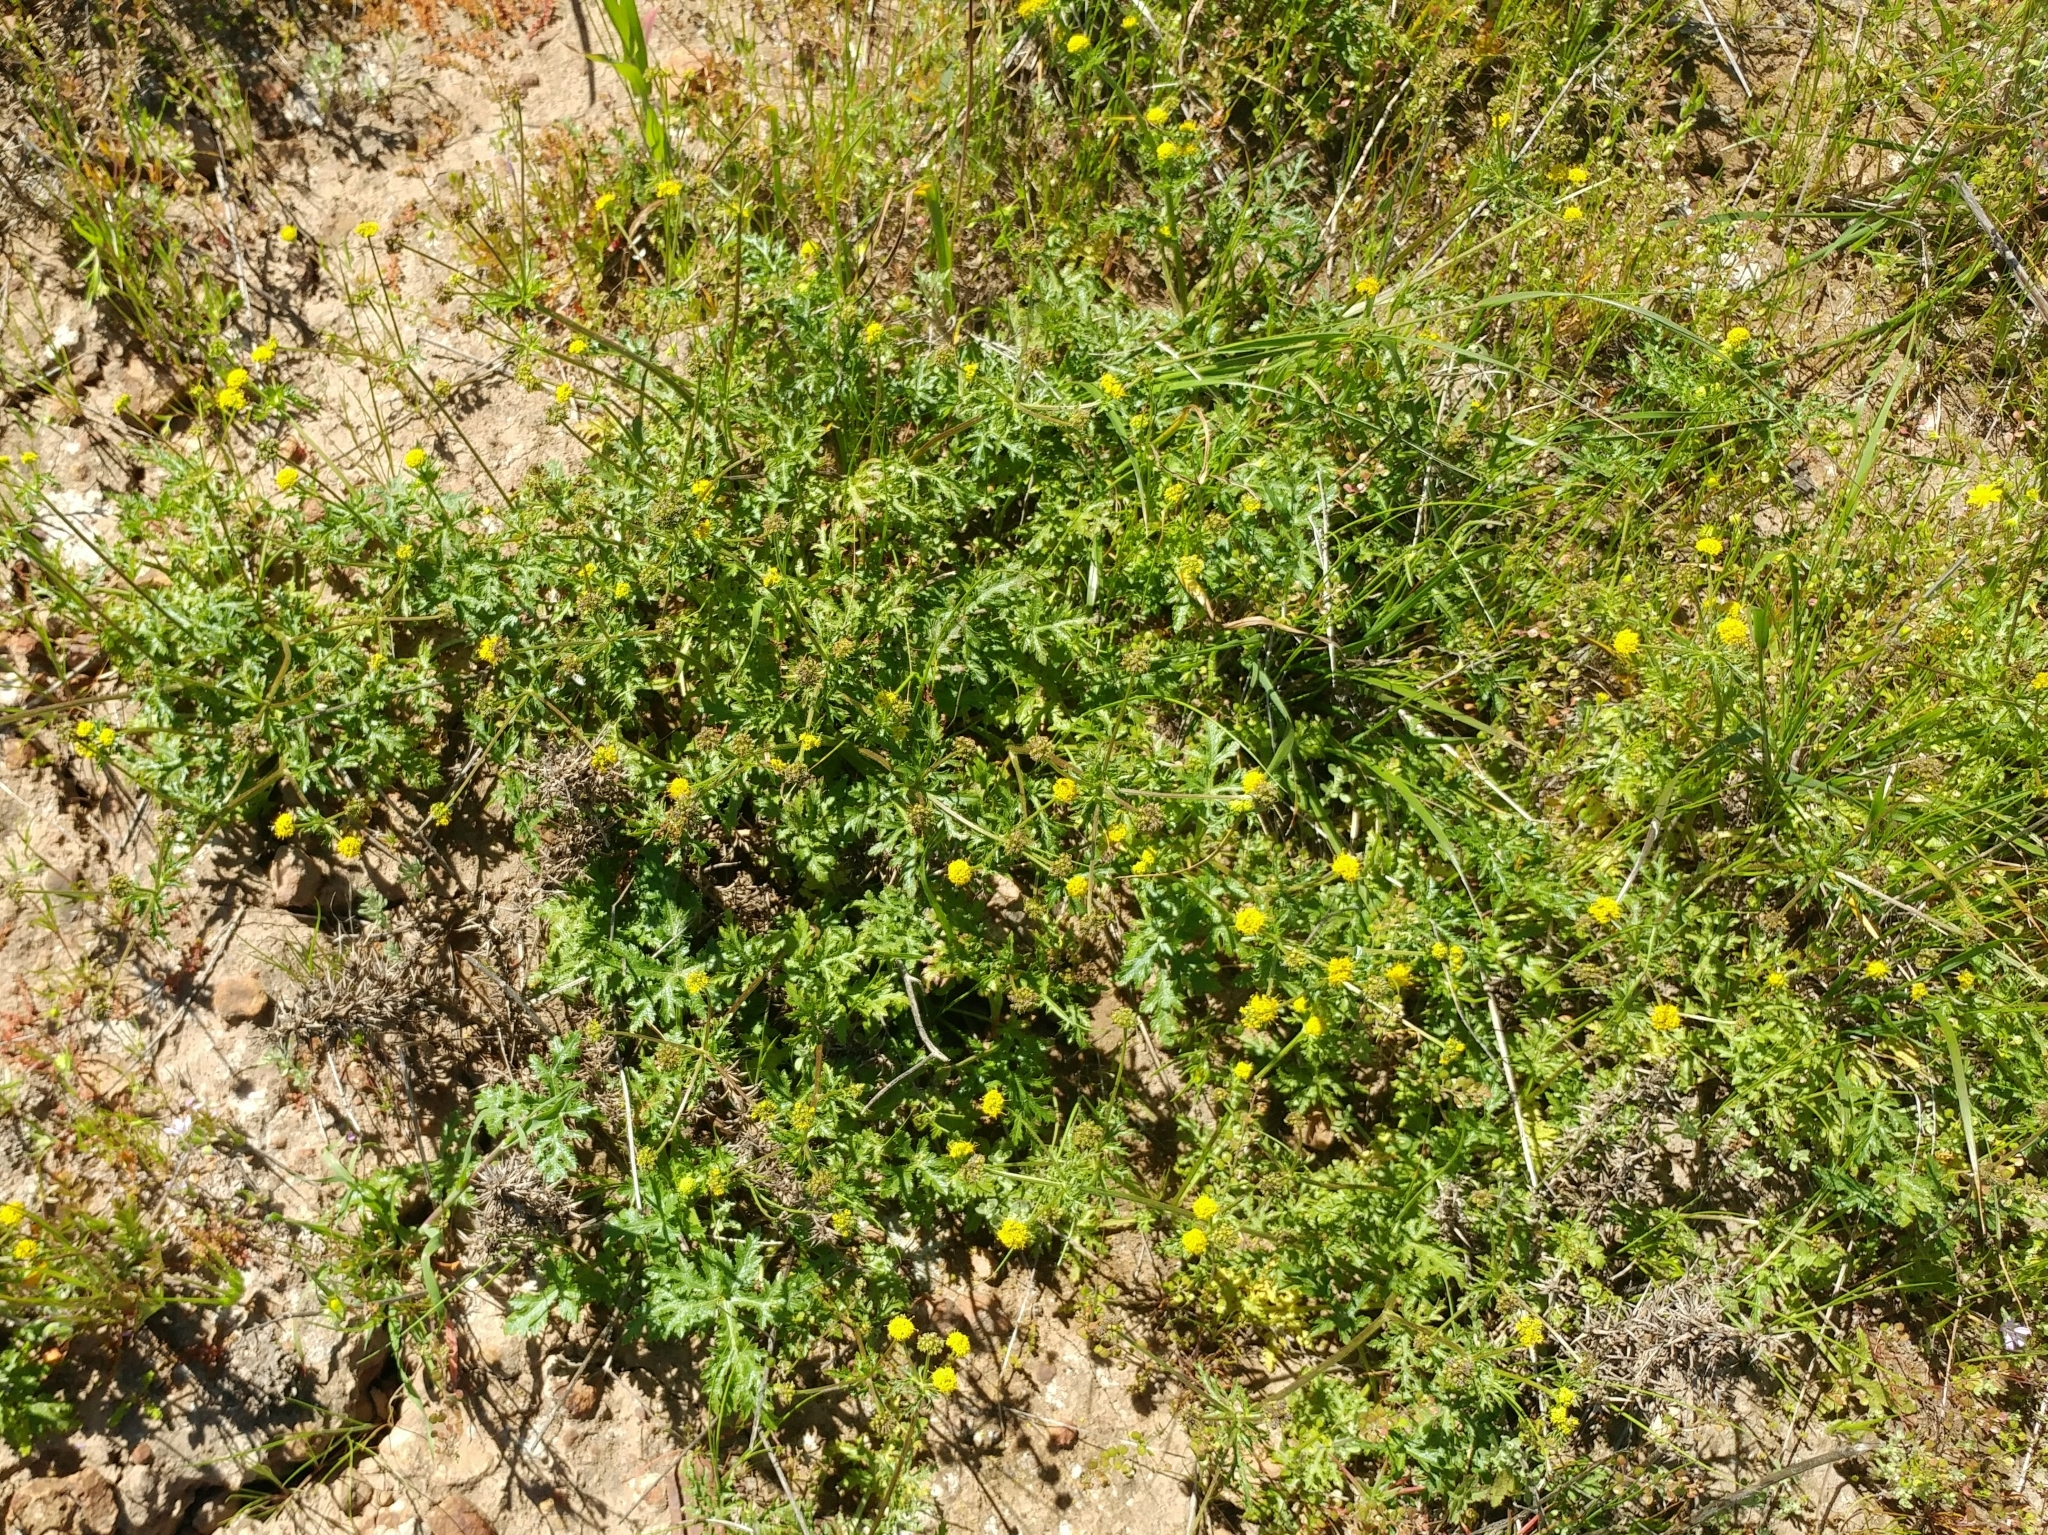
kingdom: Plantae
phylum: Tracheophyta
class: Magnoliopsida
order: Apiales
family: Apiaceae
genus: Sanicula
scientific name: Sanicula arguta
